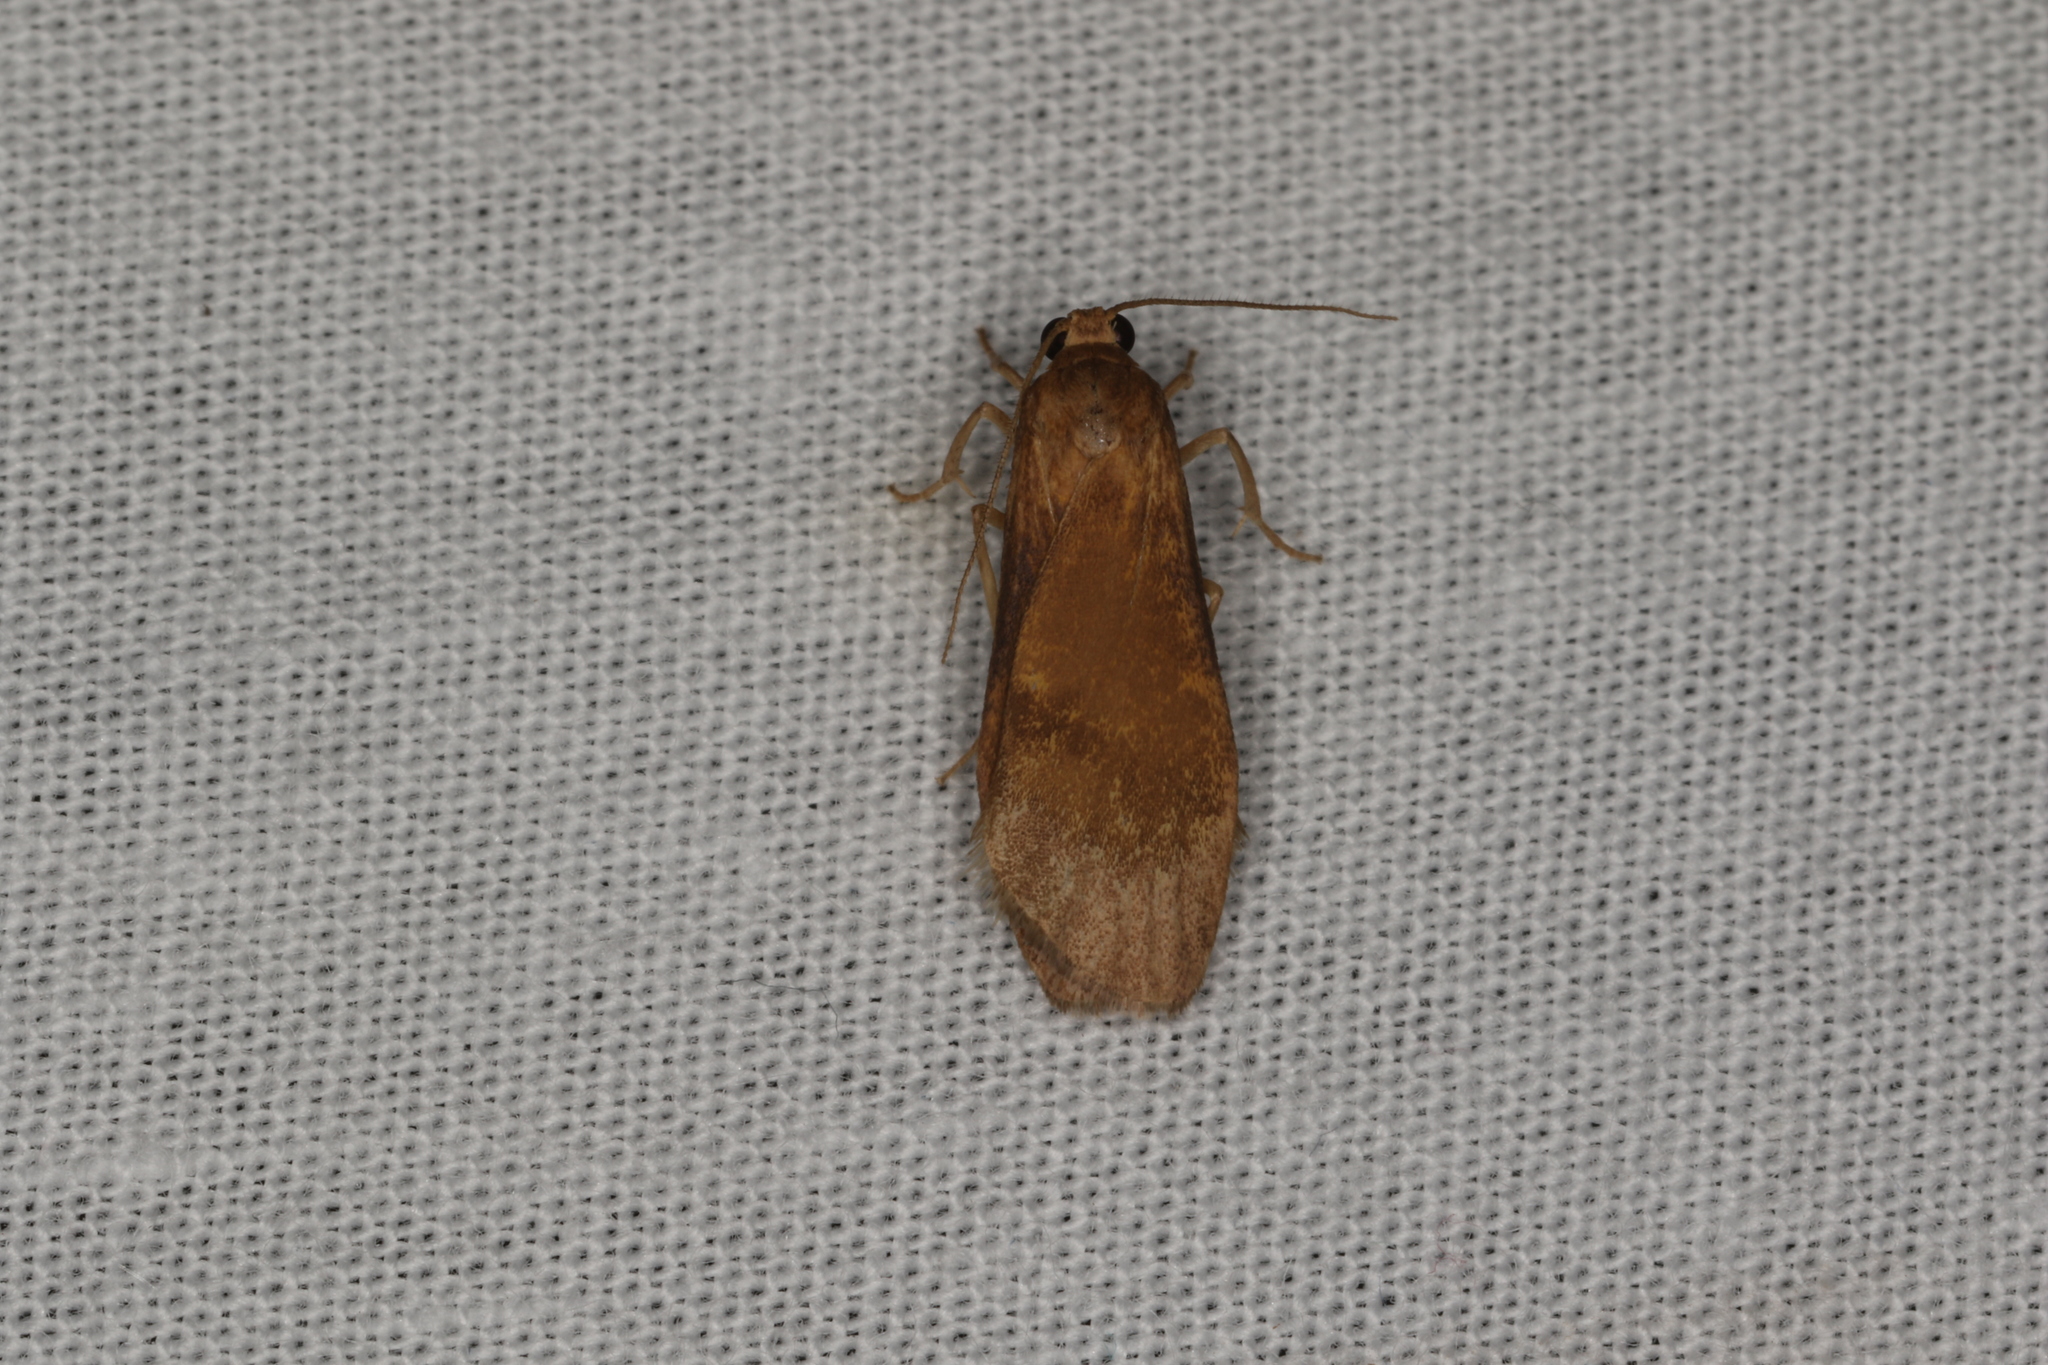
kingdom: Animalia
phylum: Arthropoda
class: Insecta
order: Lepidoptera
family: Erebidae
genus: Lambula
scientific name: Lambula obliquilinea
